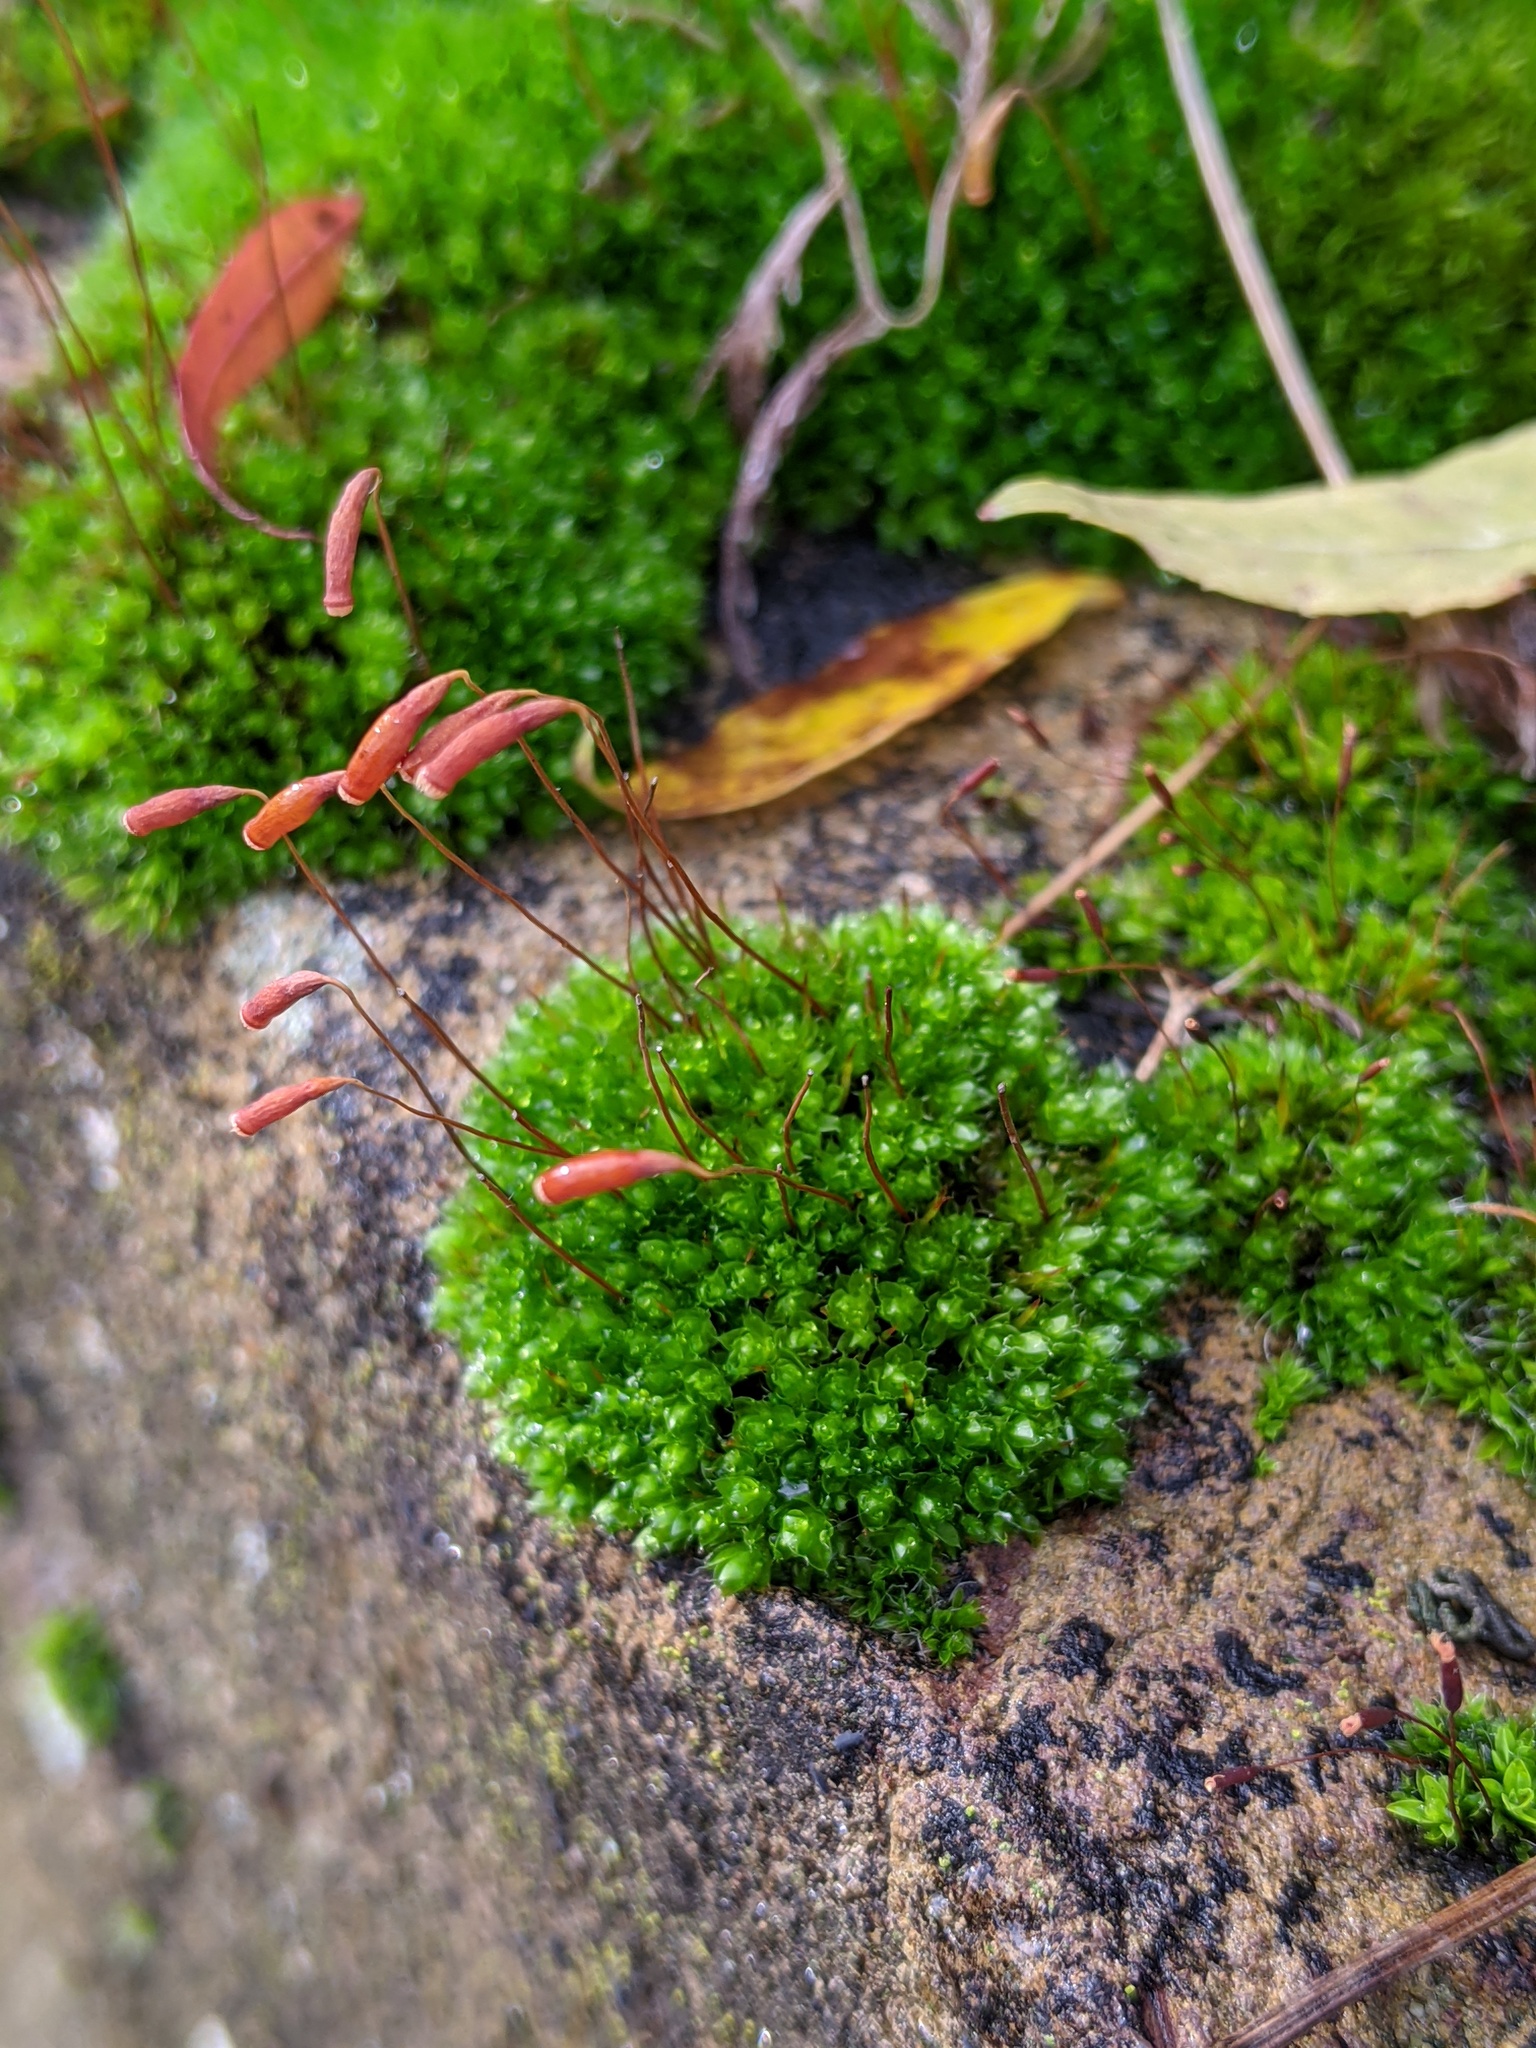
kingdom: Plantae
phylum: Bryophyta
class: Bryopsida
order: Bryales
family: Bryaceae
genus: Rosulabryum
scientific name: Rosulabryum capillare
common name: Capillary thread-moss
